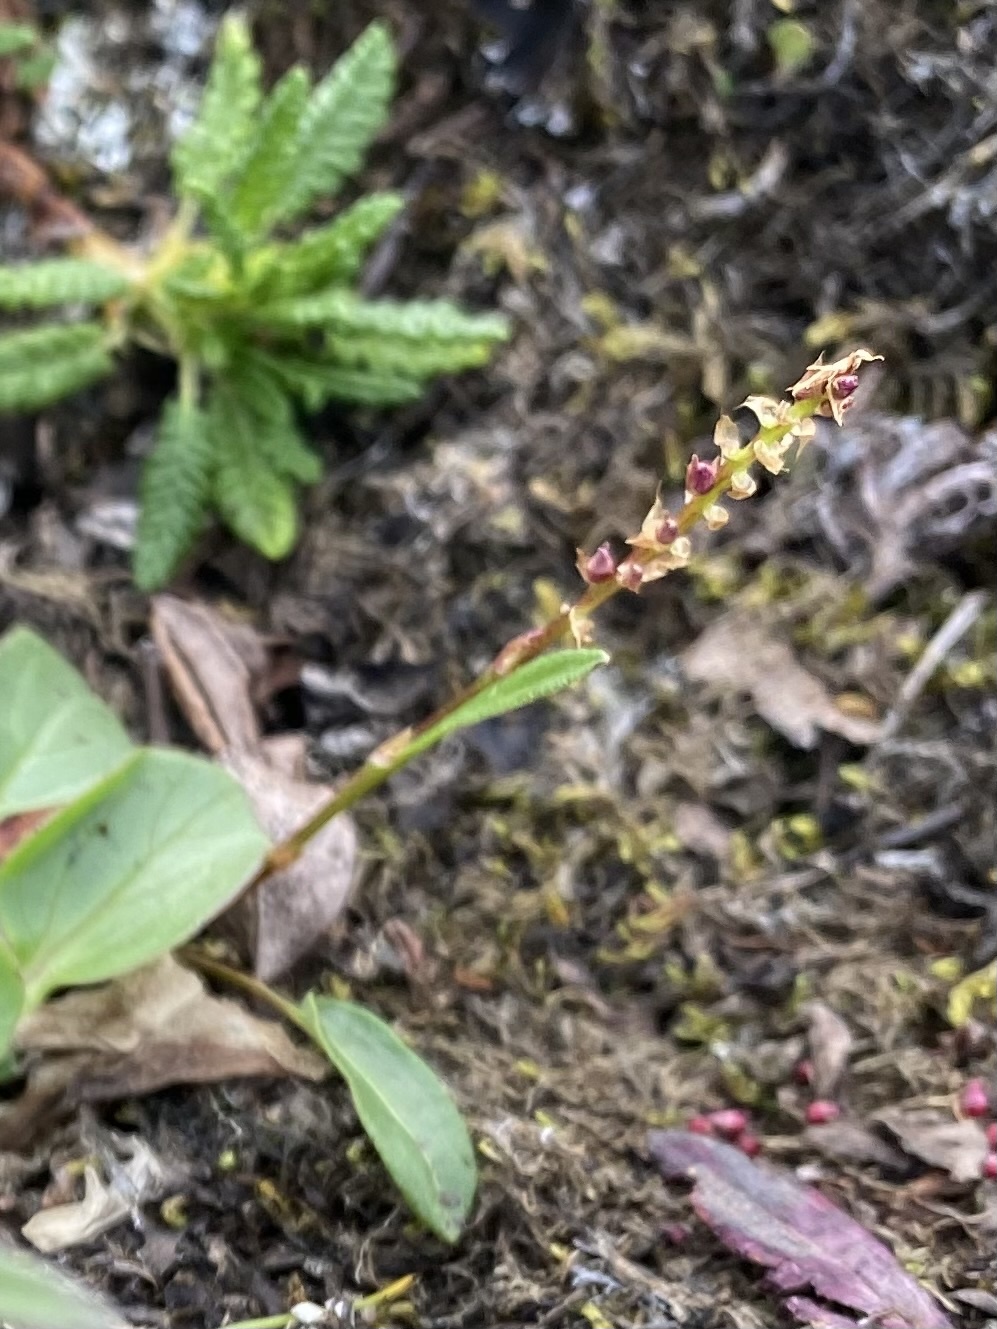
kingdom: Plantae
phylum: Tracheophyta
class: Magnoliopsida
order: Caryophyllales
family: Polygonaceae
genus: Bistorta
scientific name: Bistorta vivipara
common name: Alpine bistort
